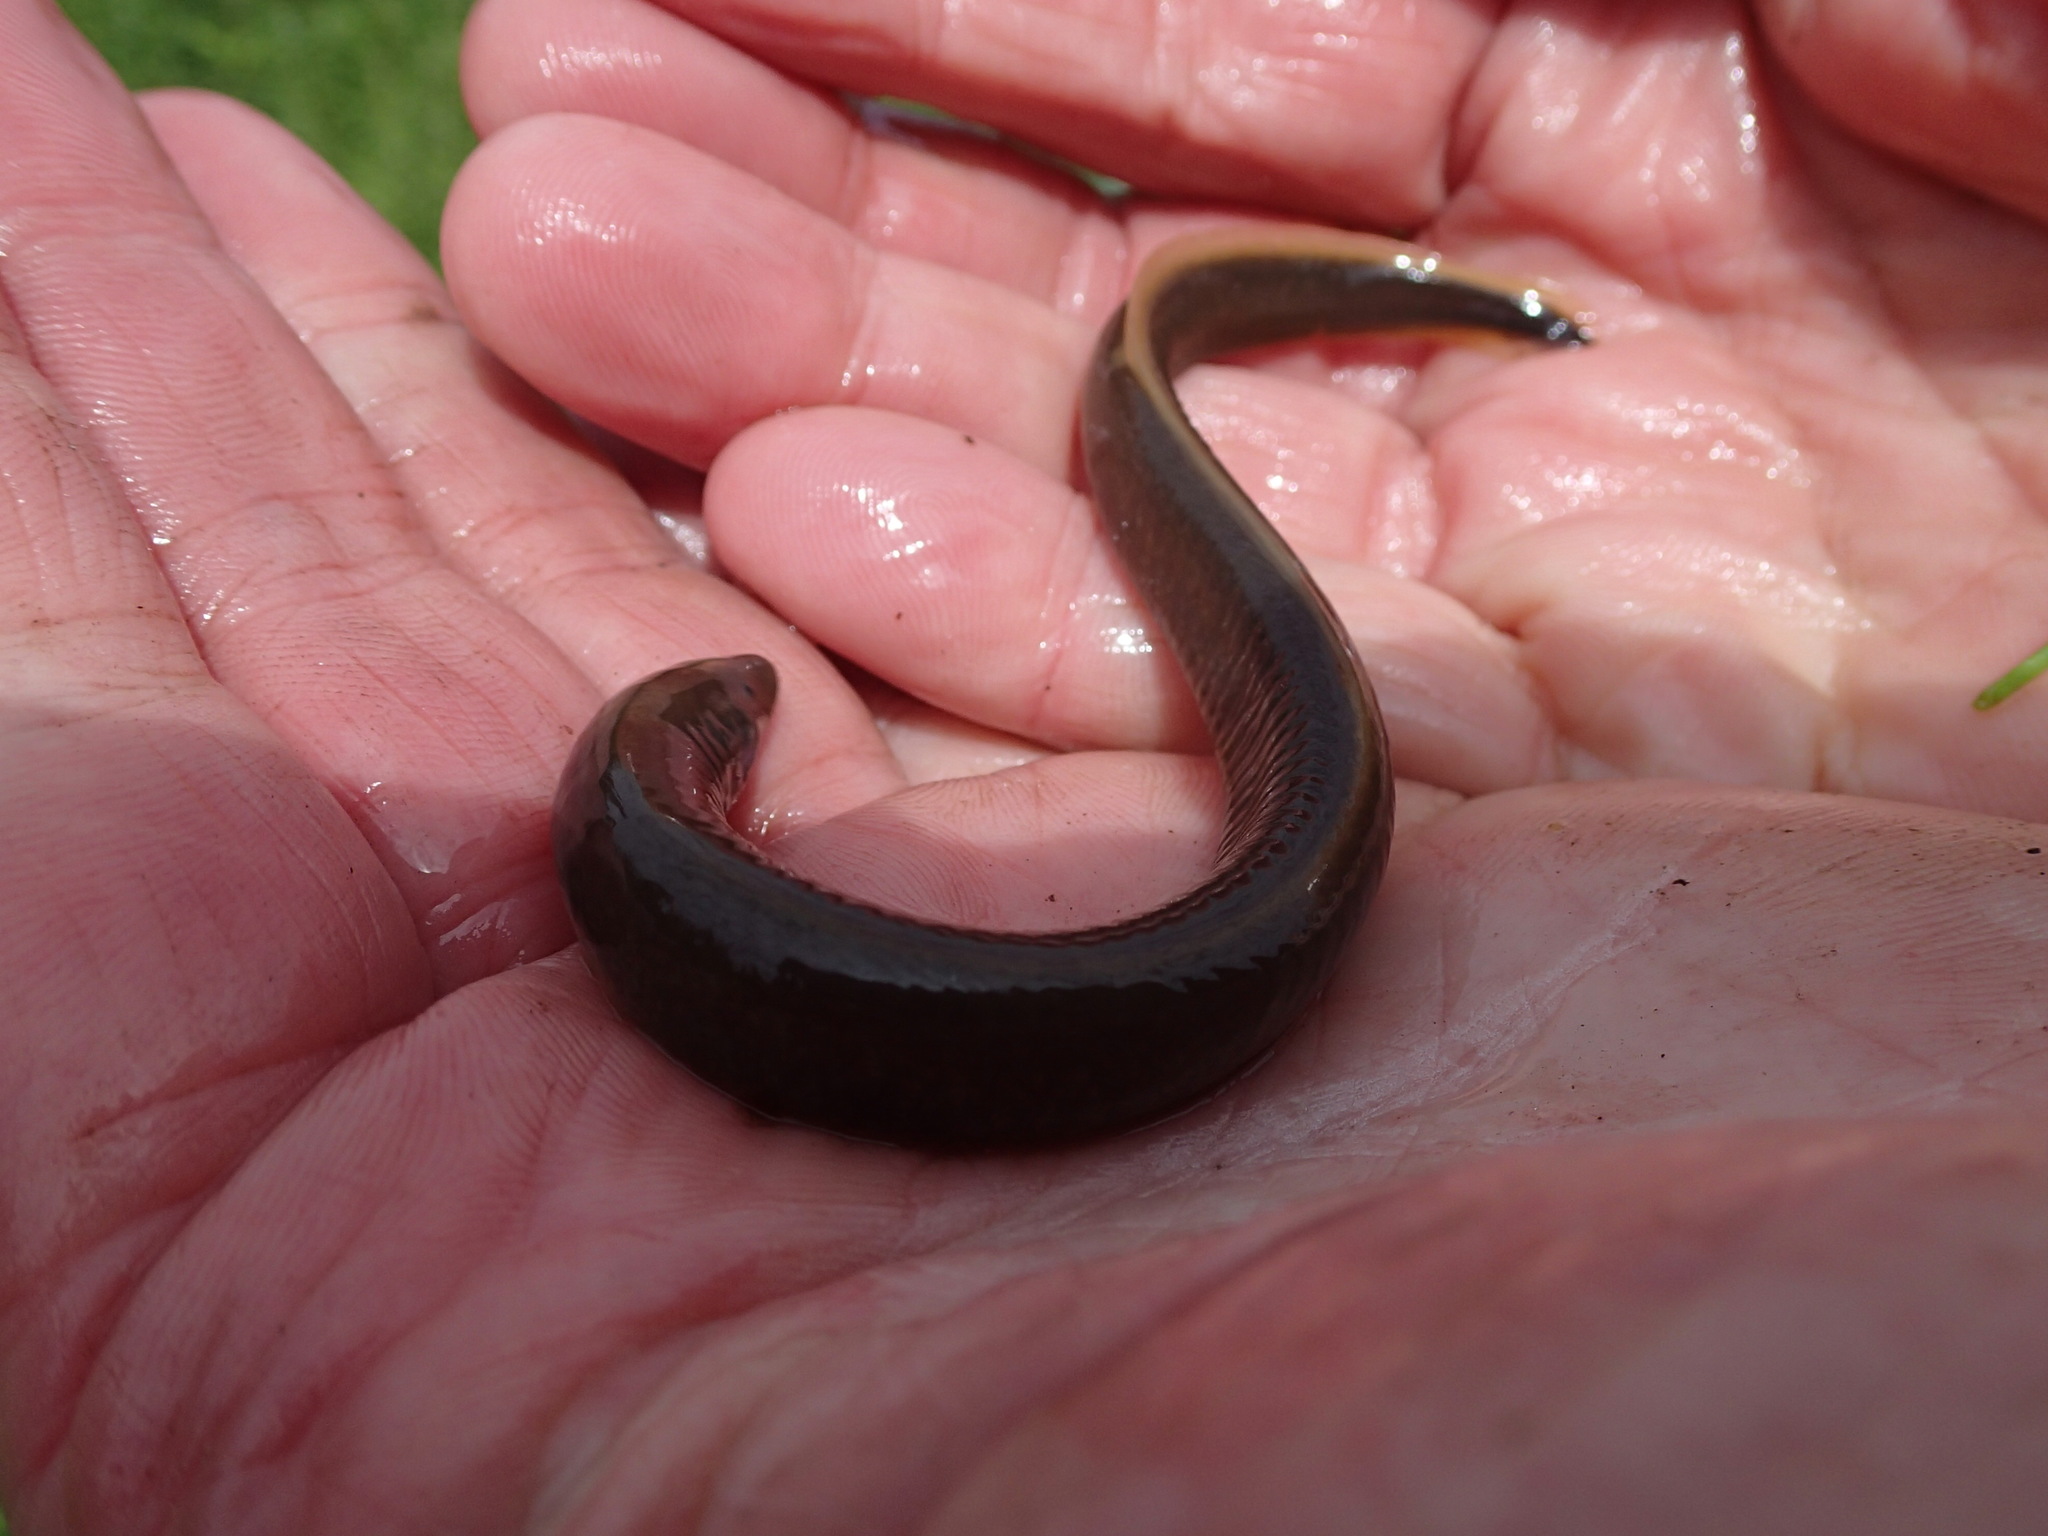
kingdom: Animalia
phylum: Chordata
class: Petromyzonti
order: Petromyzontiformes
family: Petromyzontidae
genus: Ichthyomyzon
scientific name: Ichthyomyzon fossor
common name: Northern brook lamprey
